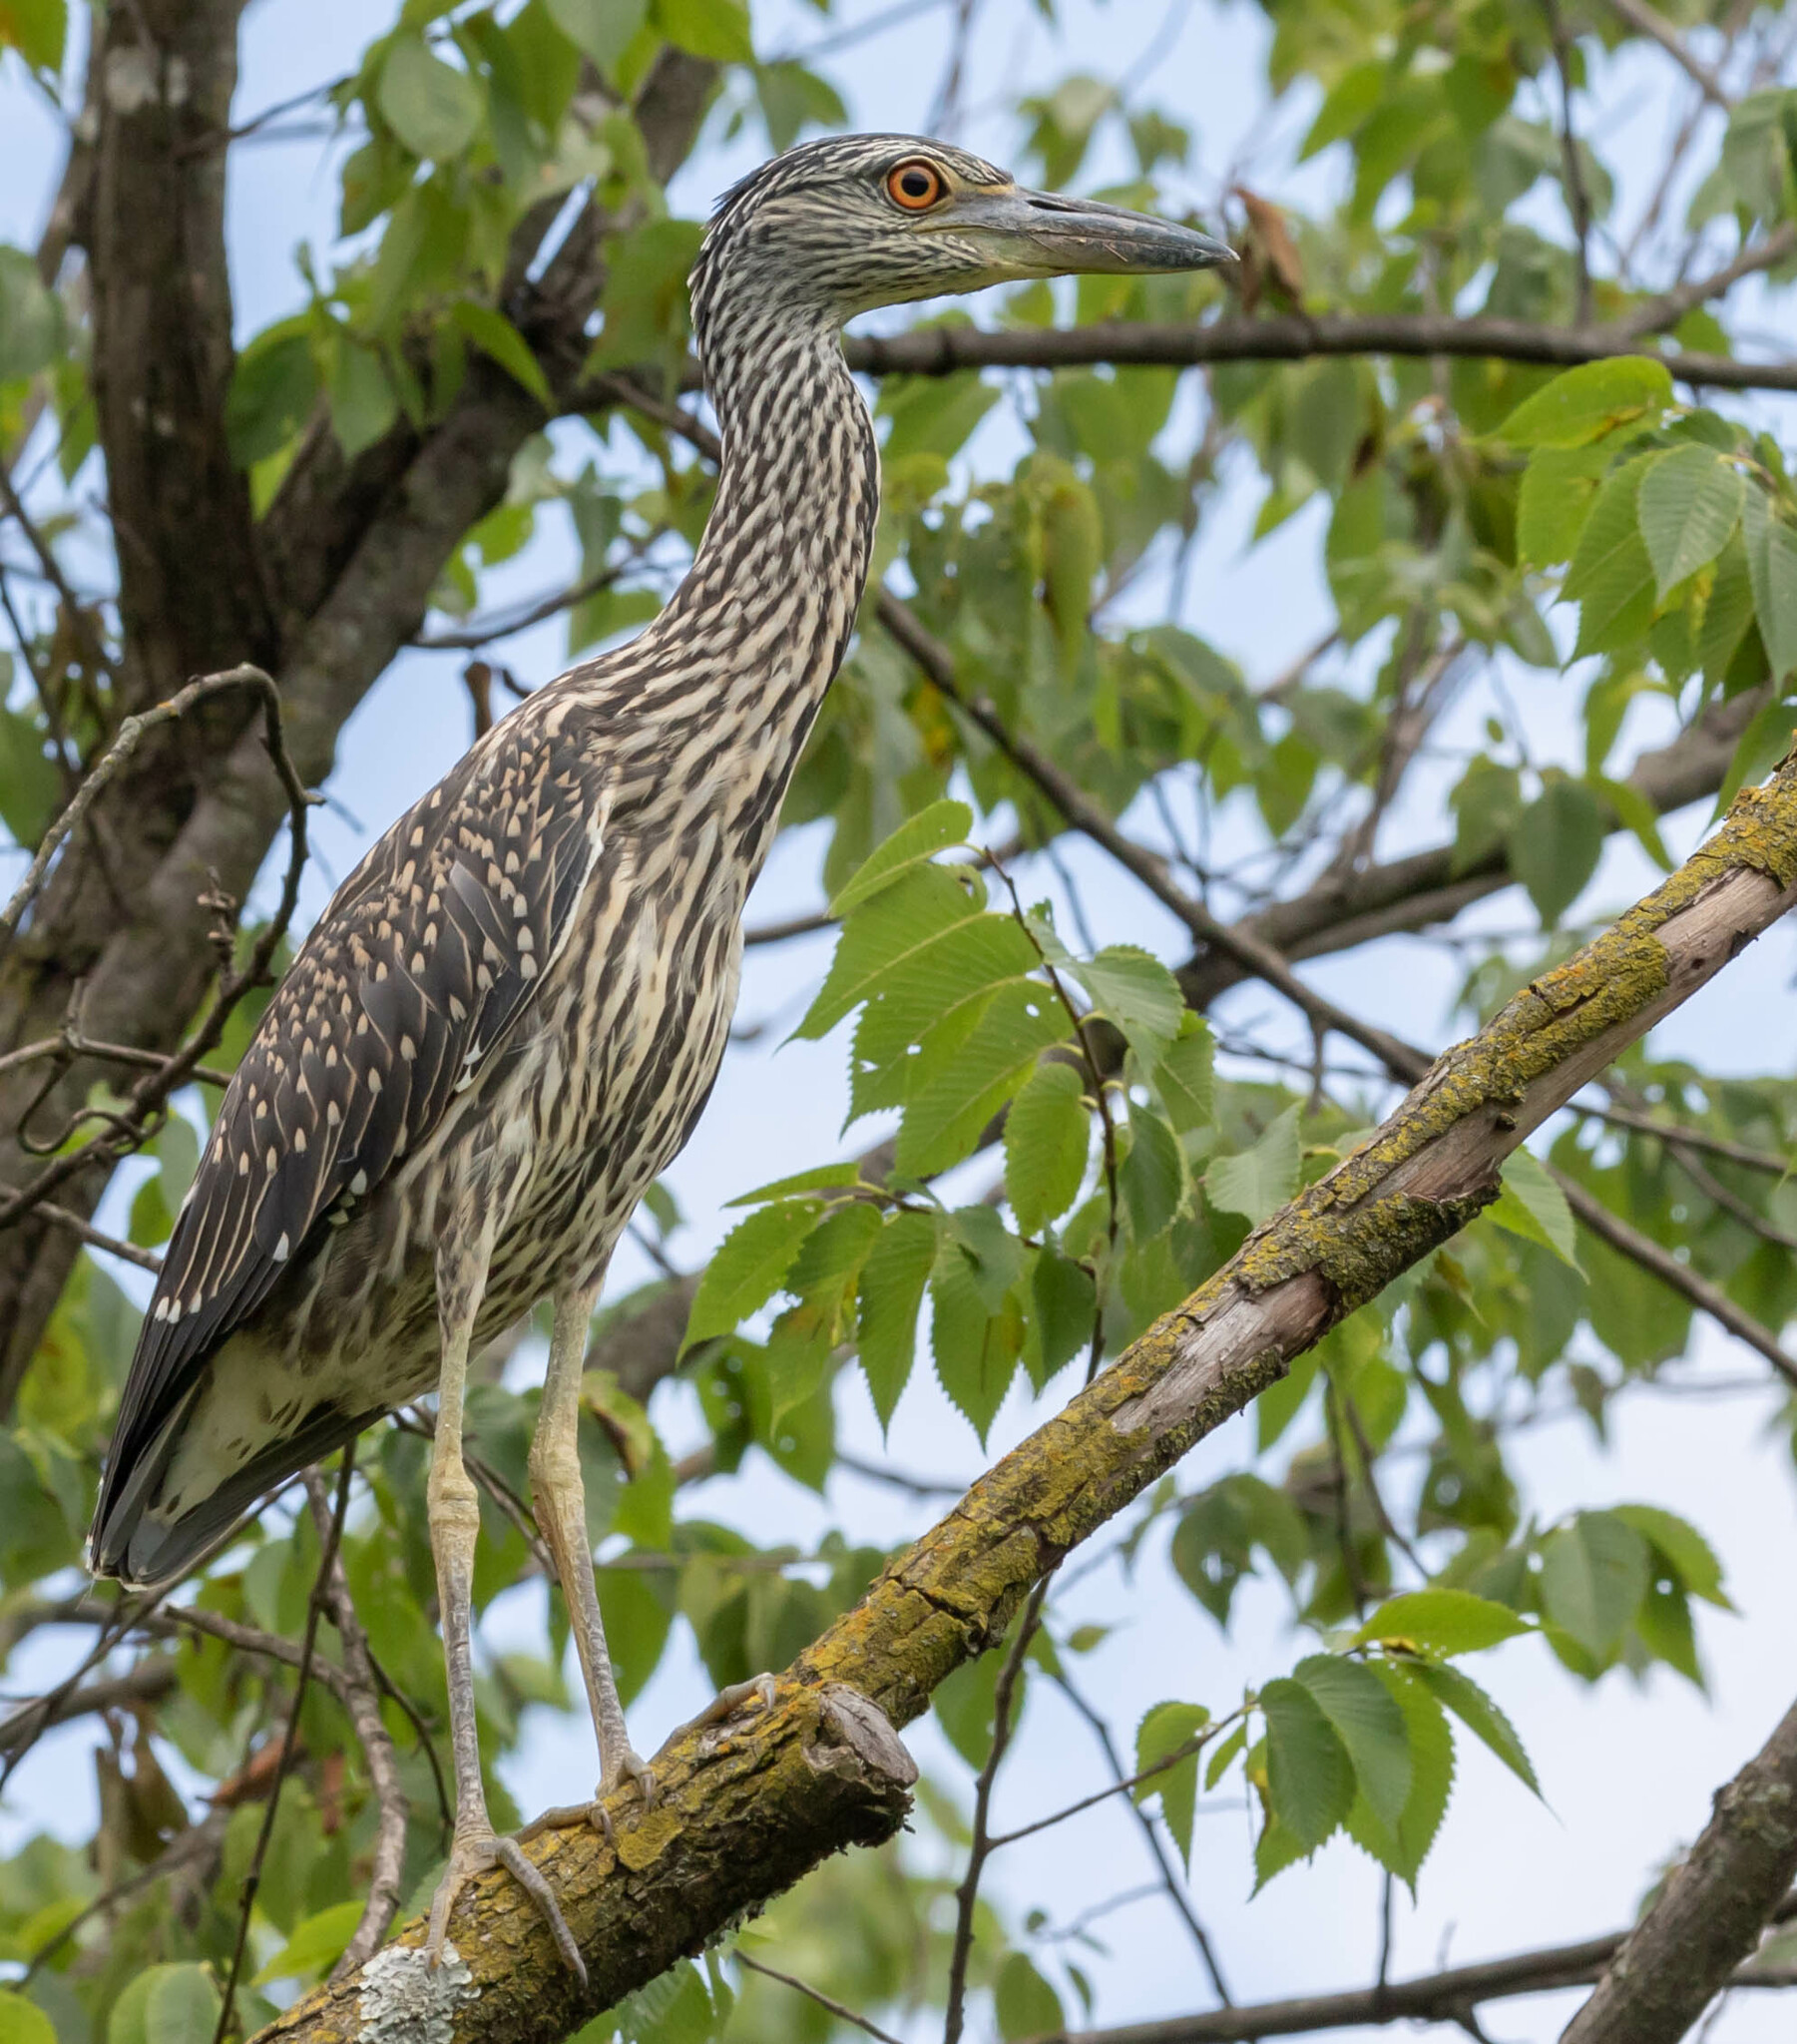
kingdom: Animalia
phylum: Chordata
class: Aves
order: Pelecaniformes
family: Ardeidae
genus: Nyctanassa
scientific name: Nyctanassa violacea
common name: Yellow-crowned night heron
